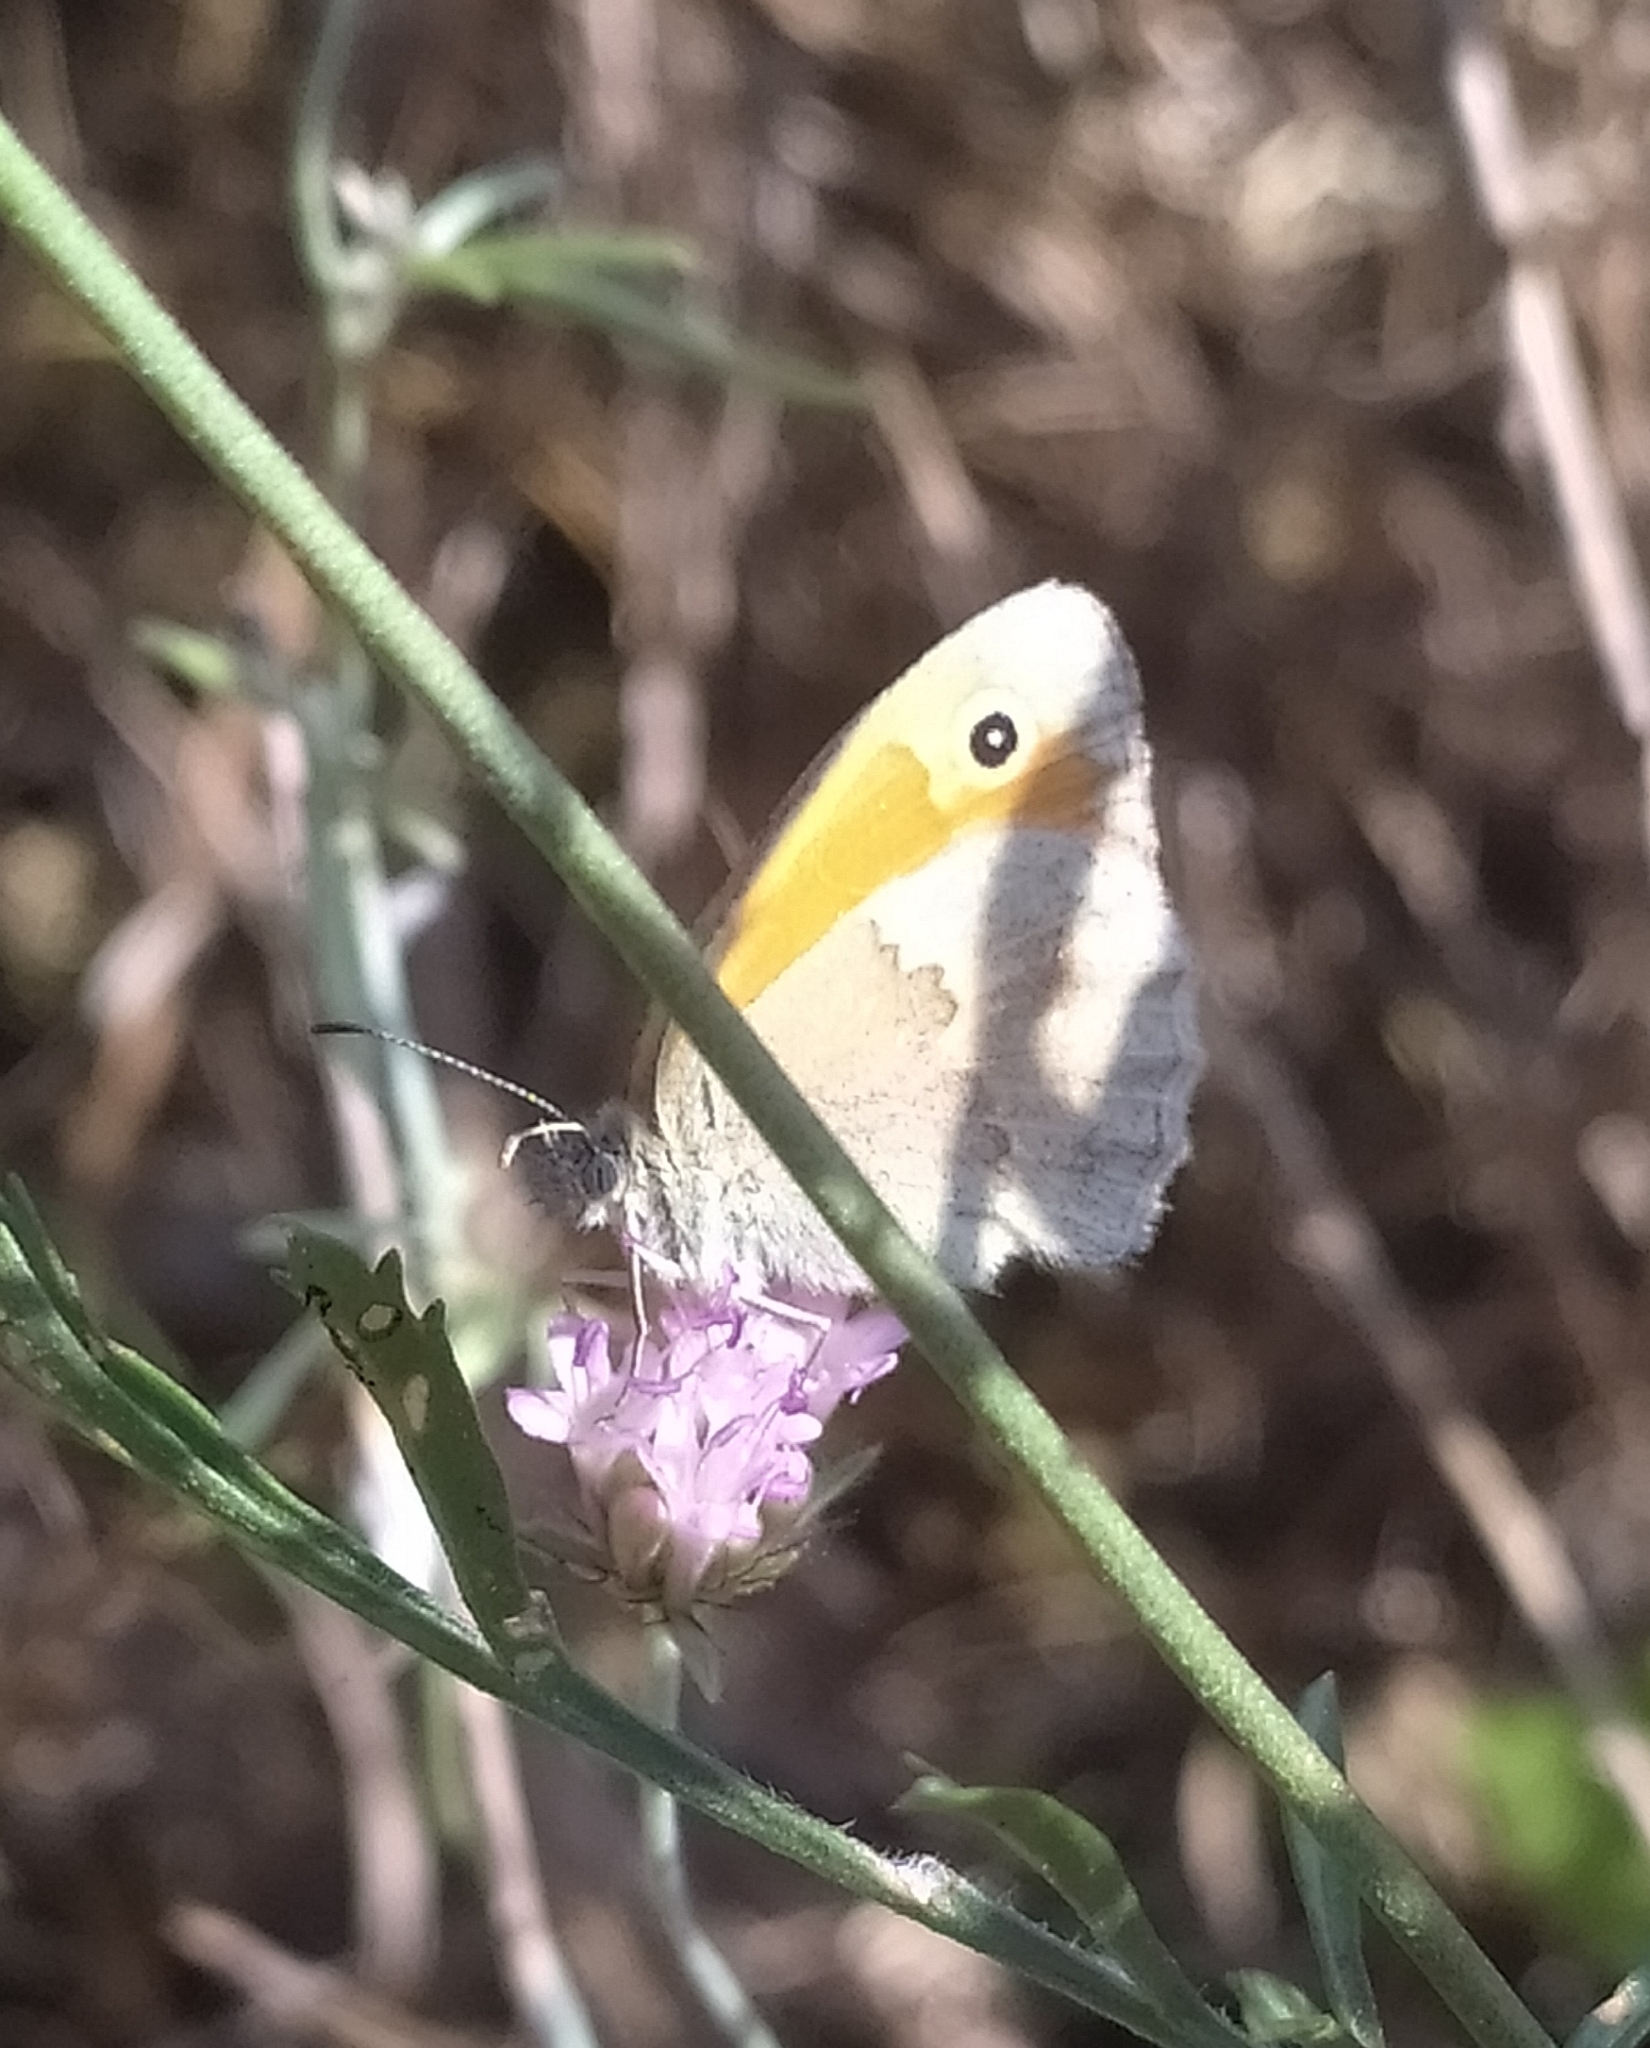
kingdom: Animalia
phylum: Arthropoda
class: Insecta
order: Lepidoptera
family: Nymphalidae
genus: Coenonympha
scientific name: Coenonympha pamphilus
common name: Small heath
